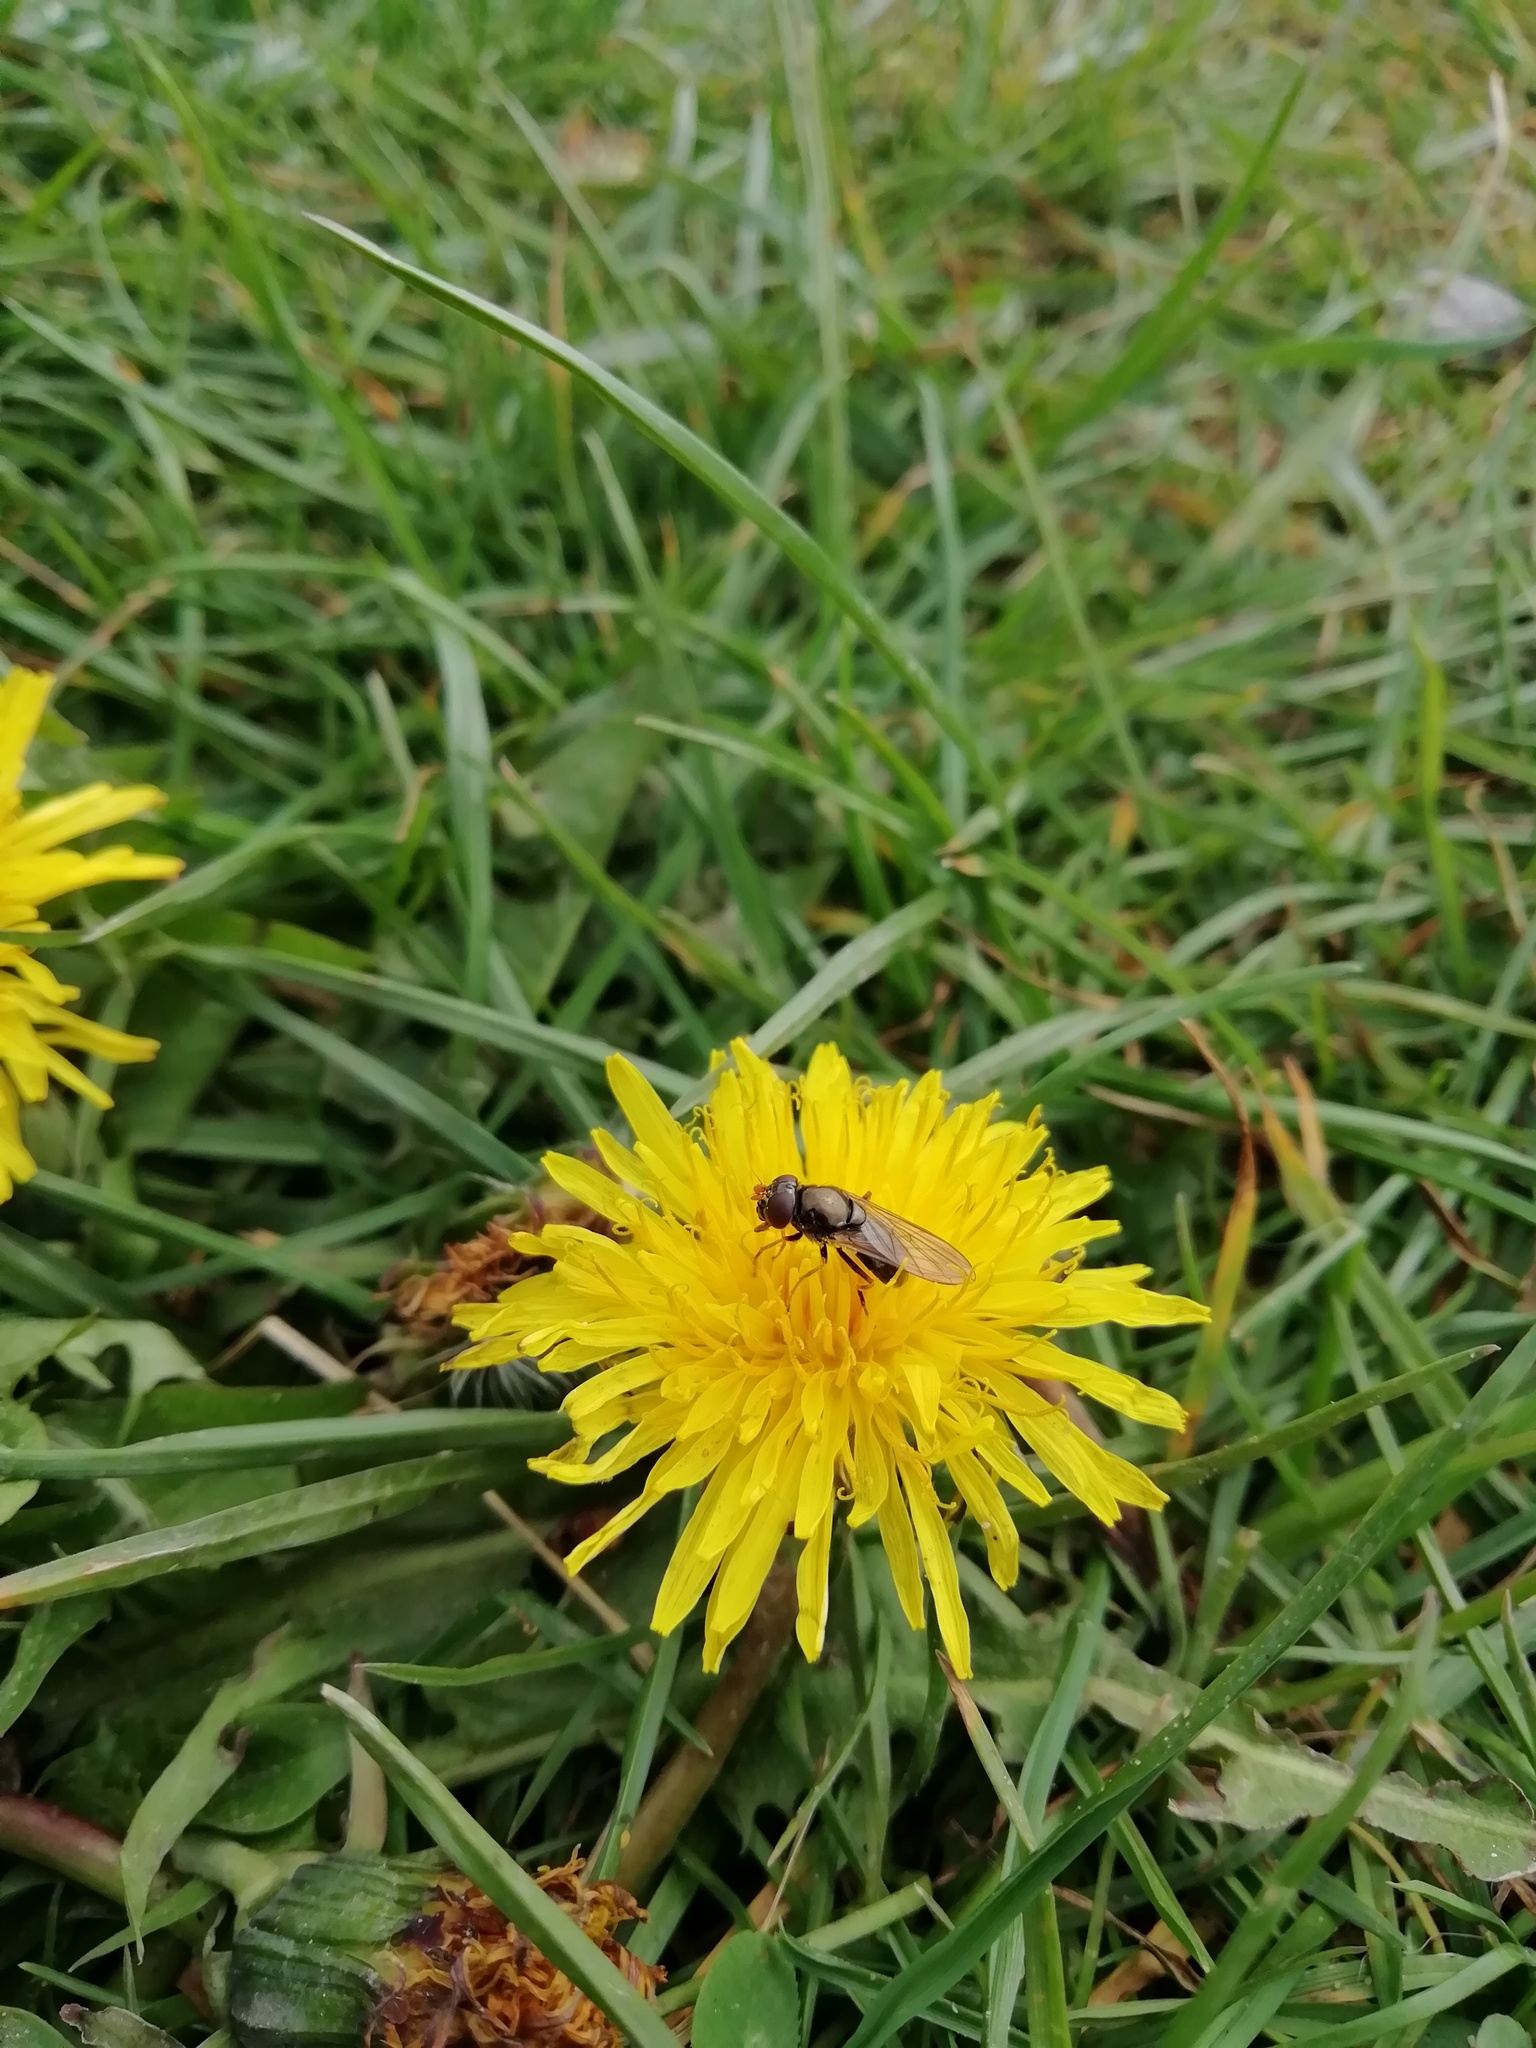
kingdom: Animalia
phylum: Arthropoda
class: Insecta
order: Diptera
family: Syrphidae
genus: Cheilosia
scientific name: Cheilosia pagana
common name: Hover fly
